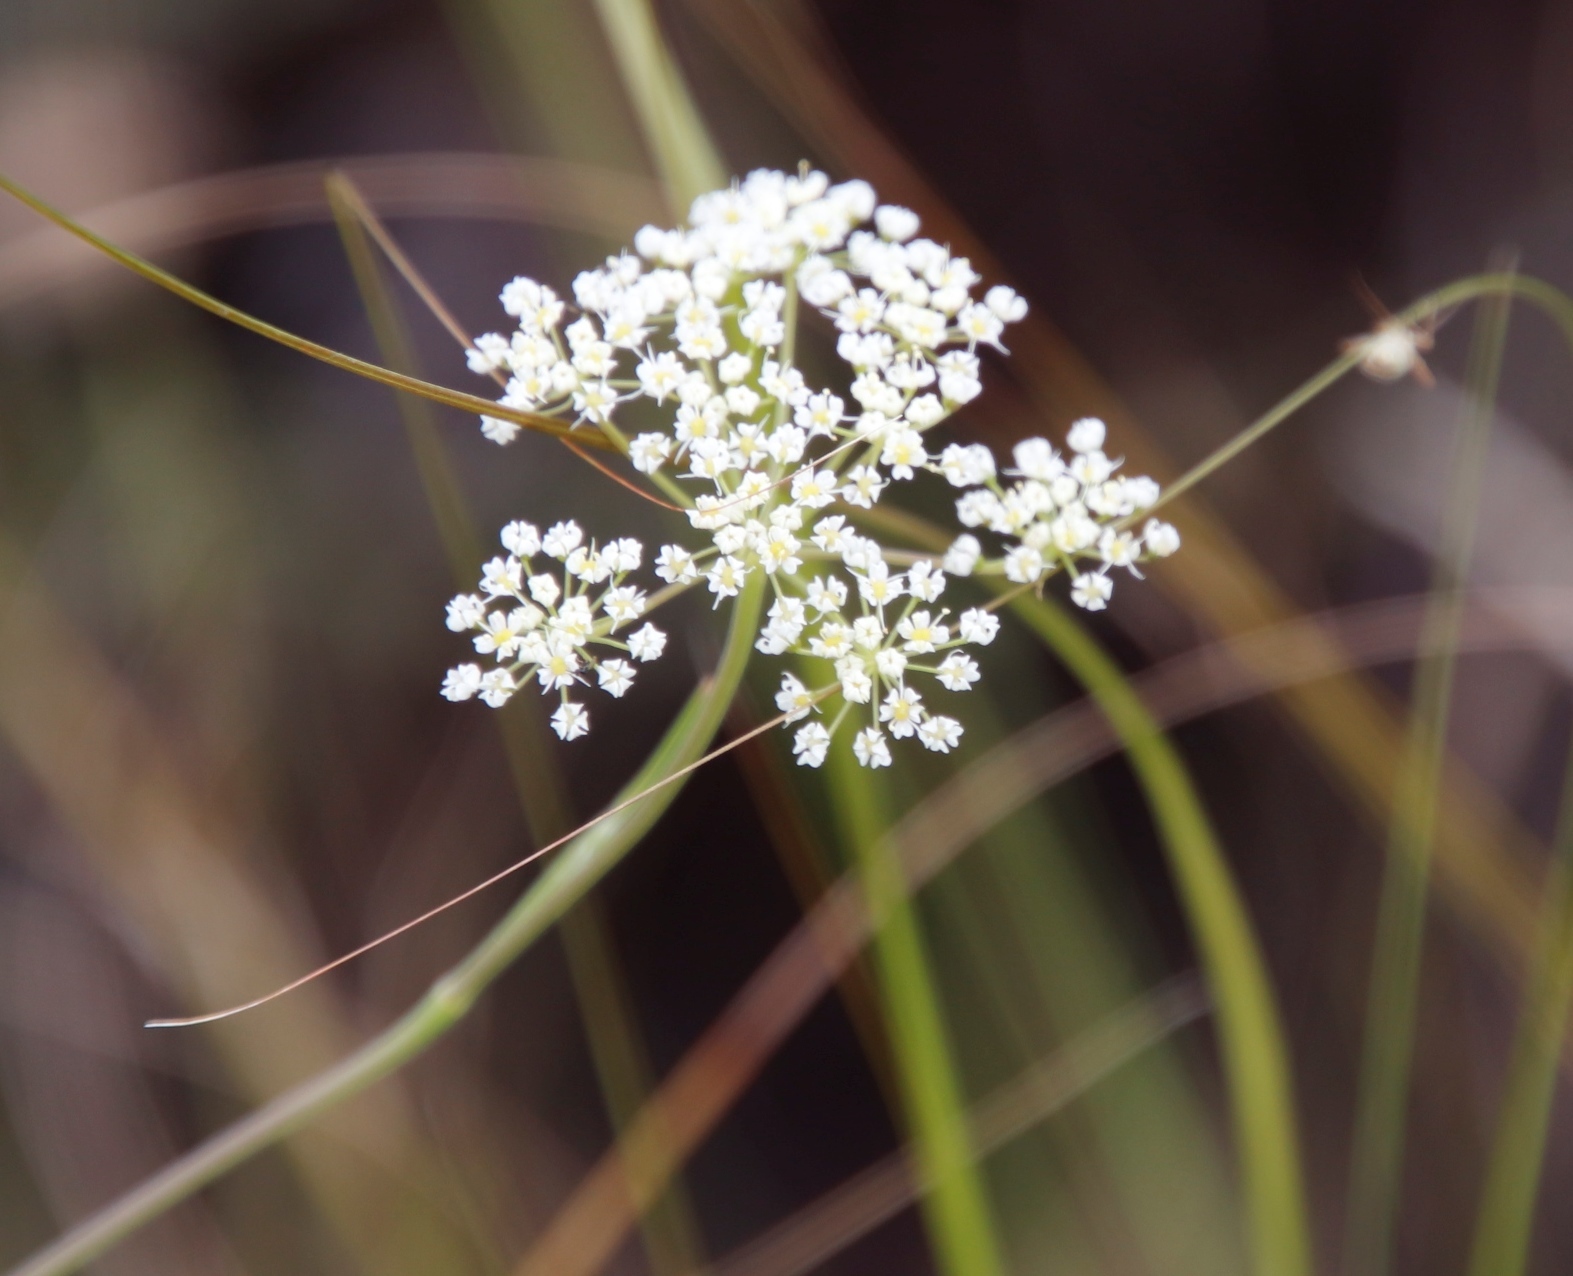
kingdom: Plantae
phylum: Tracheophyta
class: Magnoliopsida
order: Apiales
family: Apiaceae
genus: Pimpinella
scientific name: Pimpinella caffra
